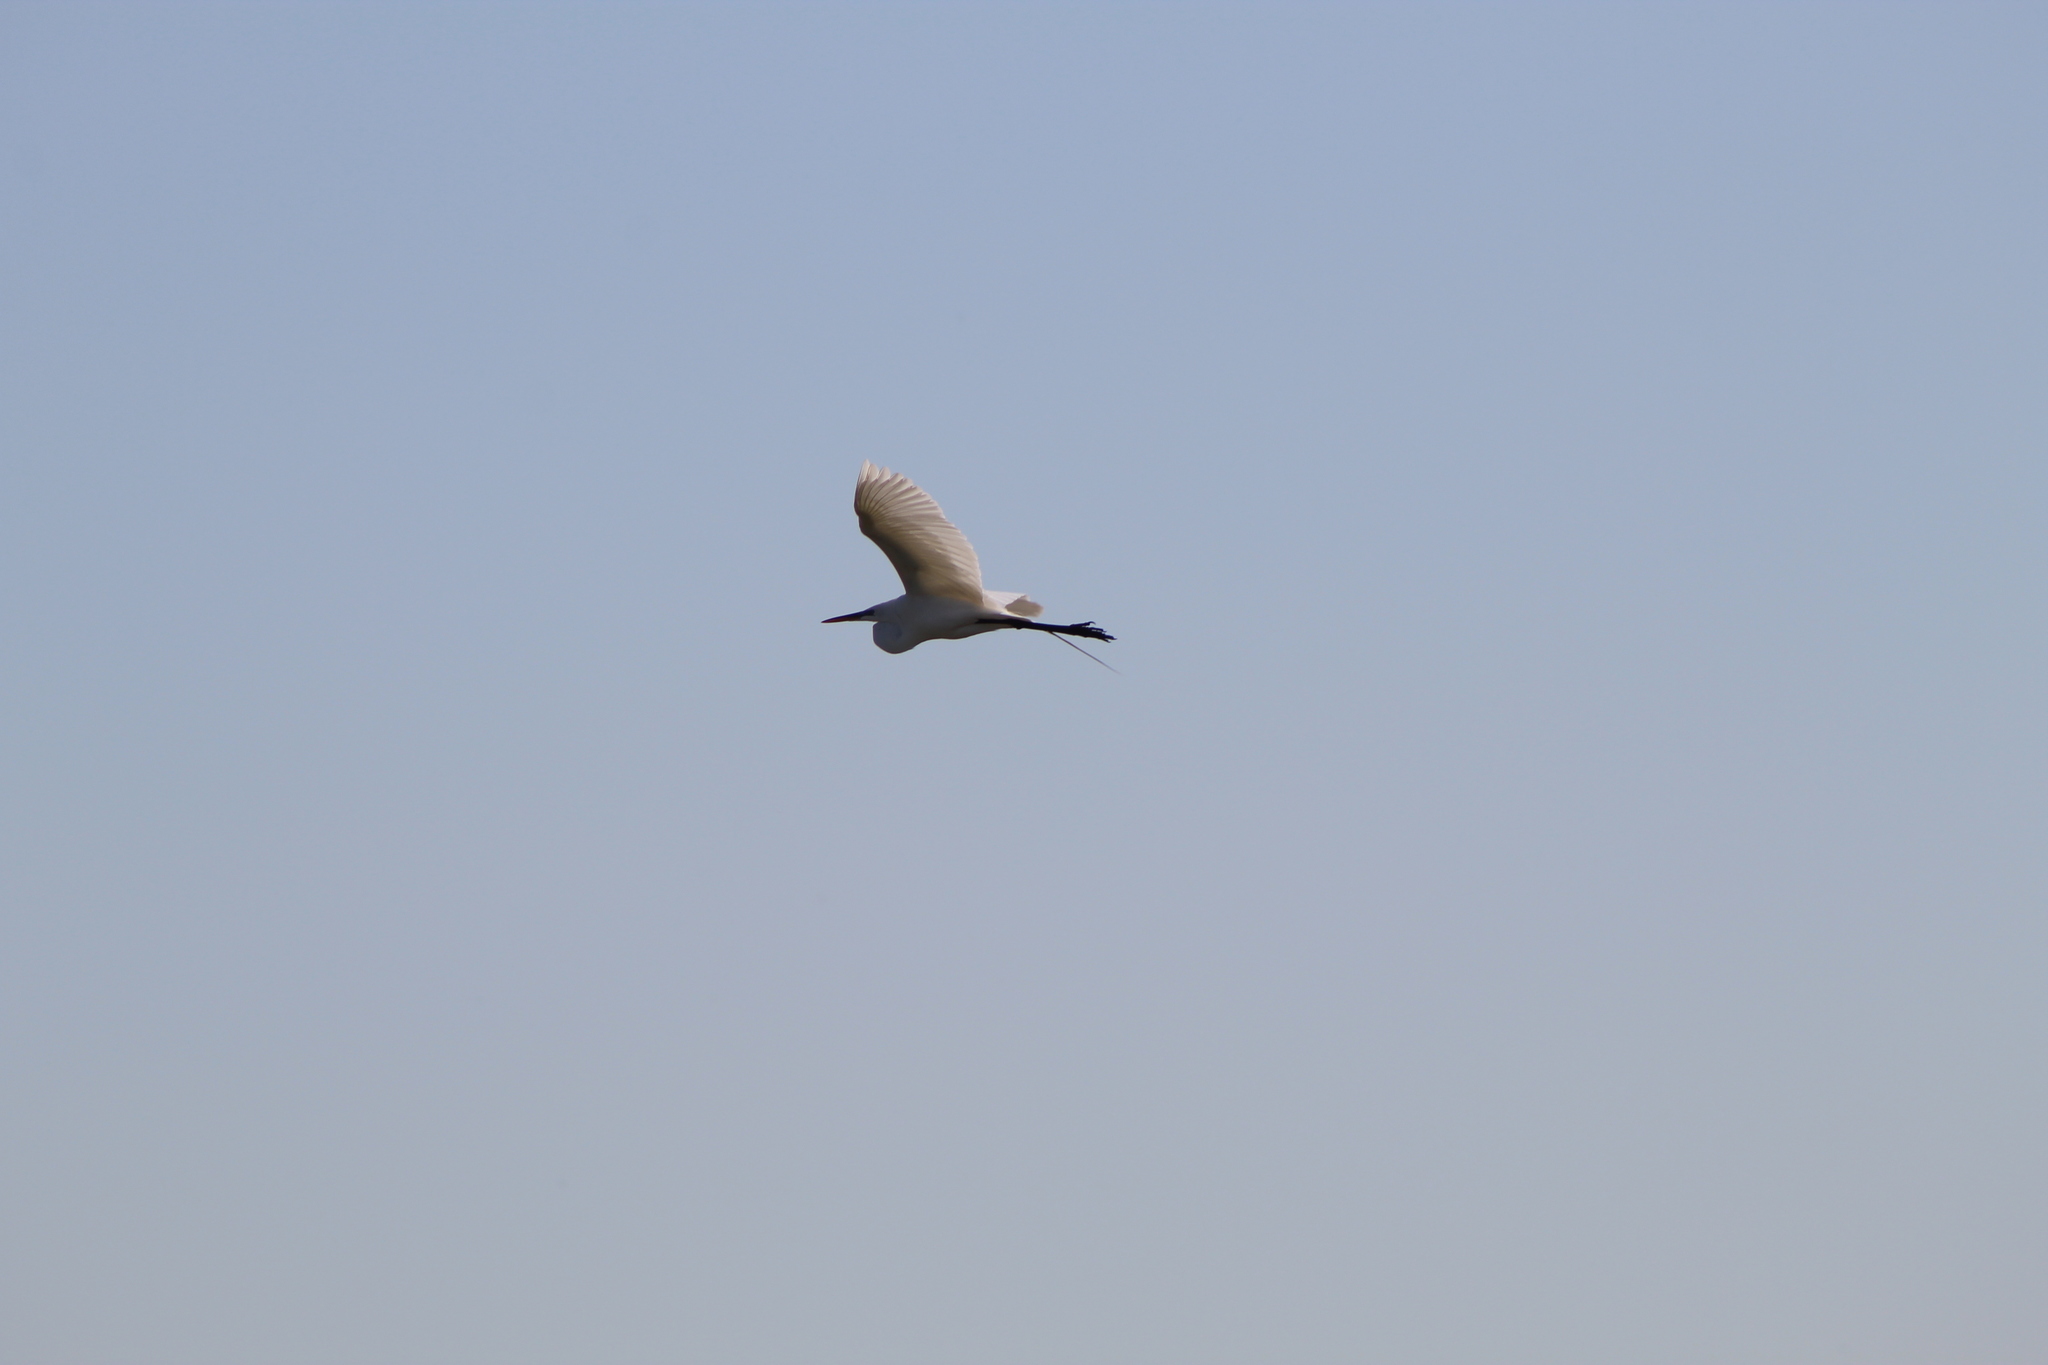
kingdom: Animalia
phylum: Chordata
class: Aves
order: Pelecaniformes
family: Ardeidae
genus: Ardea
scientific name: Ardea herodias
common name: Great blue heron
